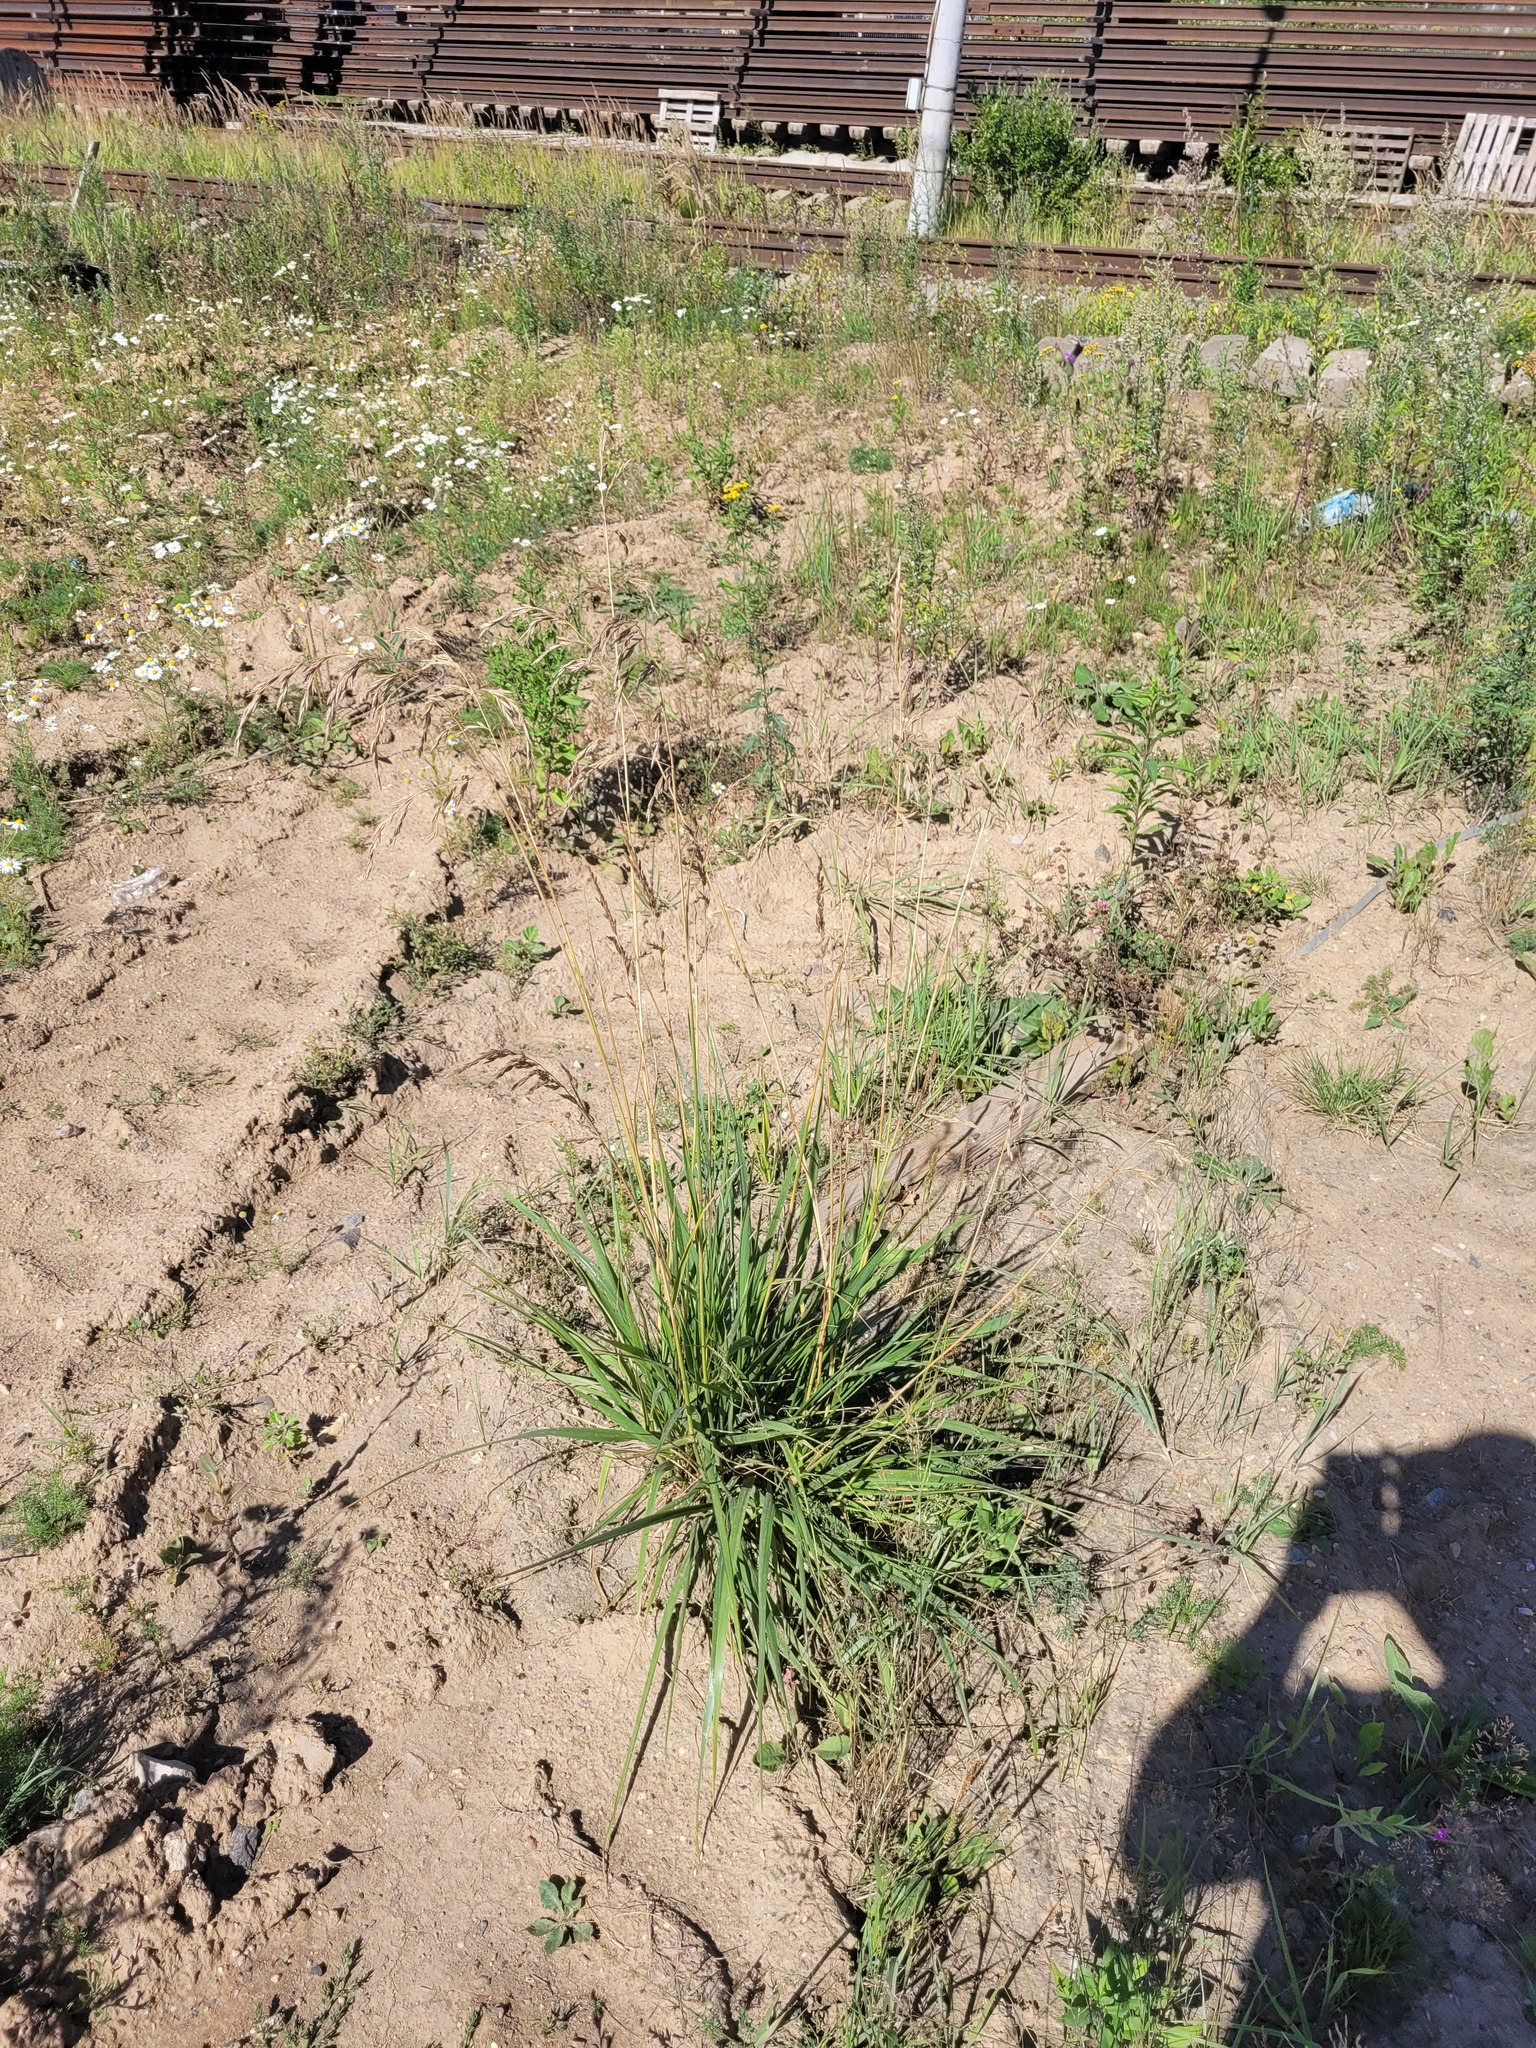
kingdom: Plantae
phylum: Tracheophyta
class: Liliopsida
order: Poales
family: Poaceae
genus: Lolium
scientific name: Lolium arundinaceum
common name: Reed fescue
